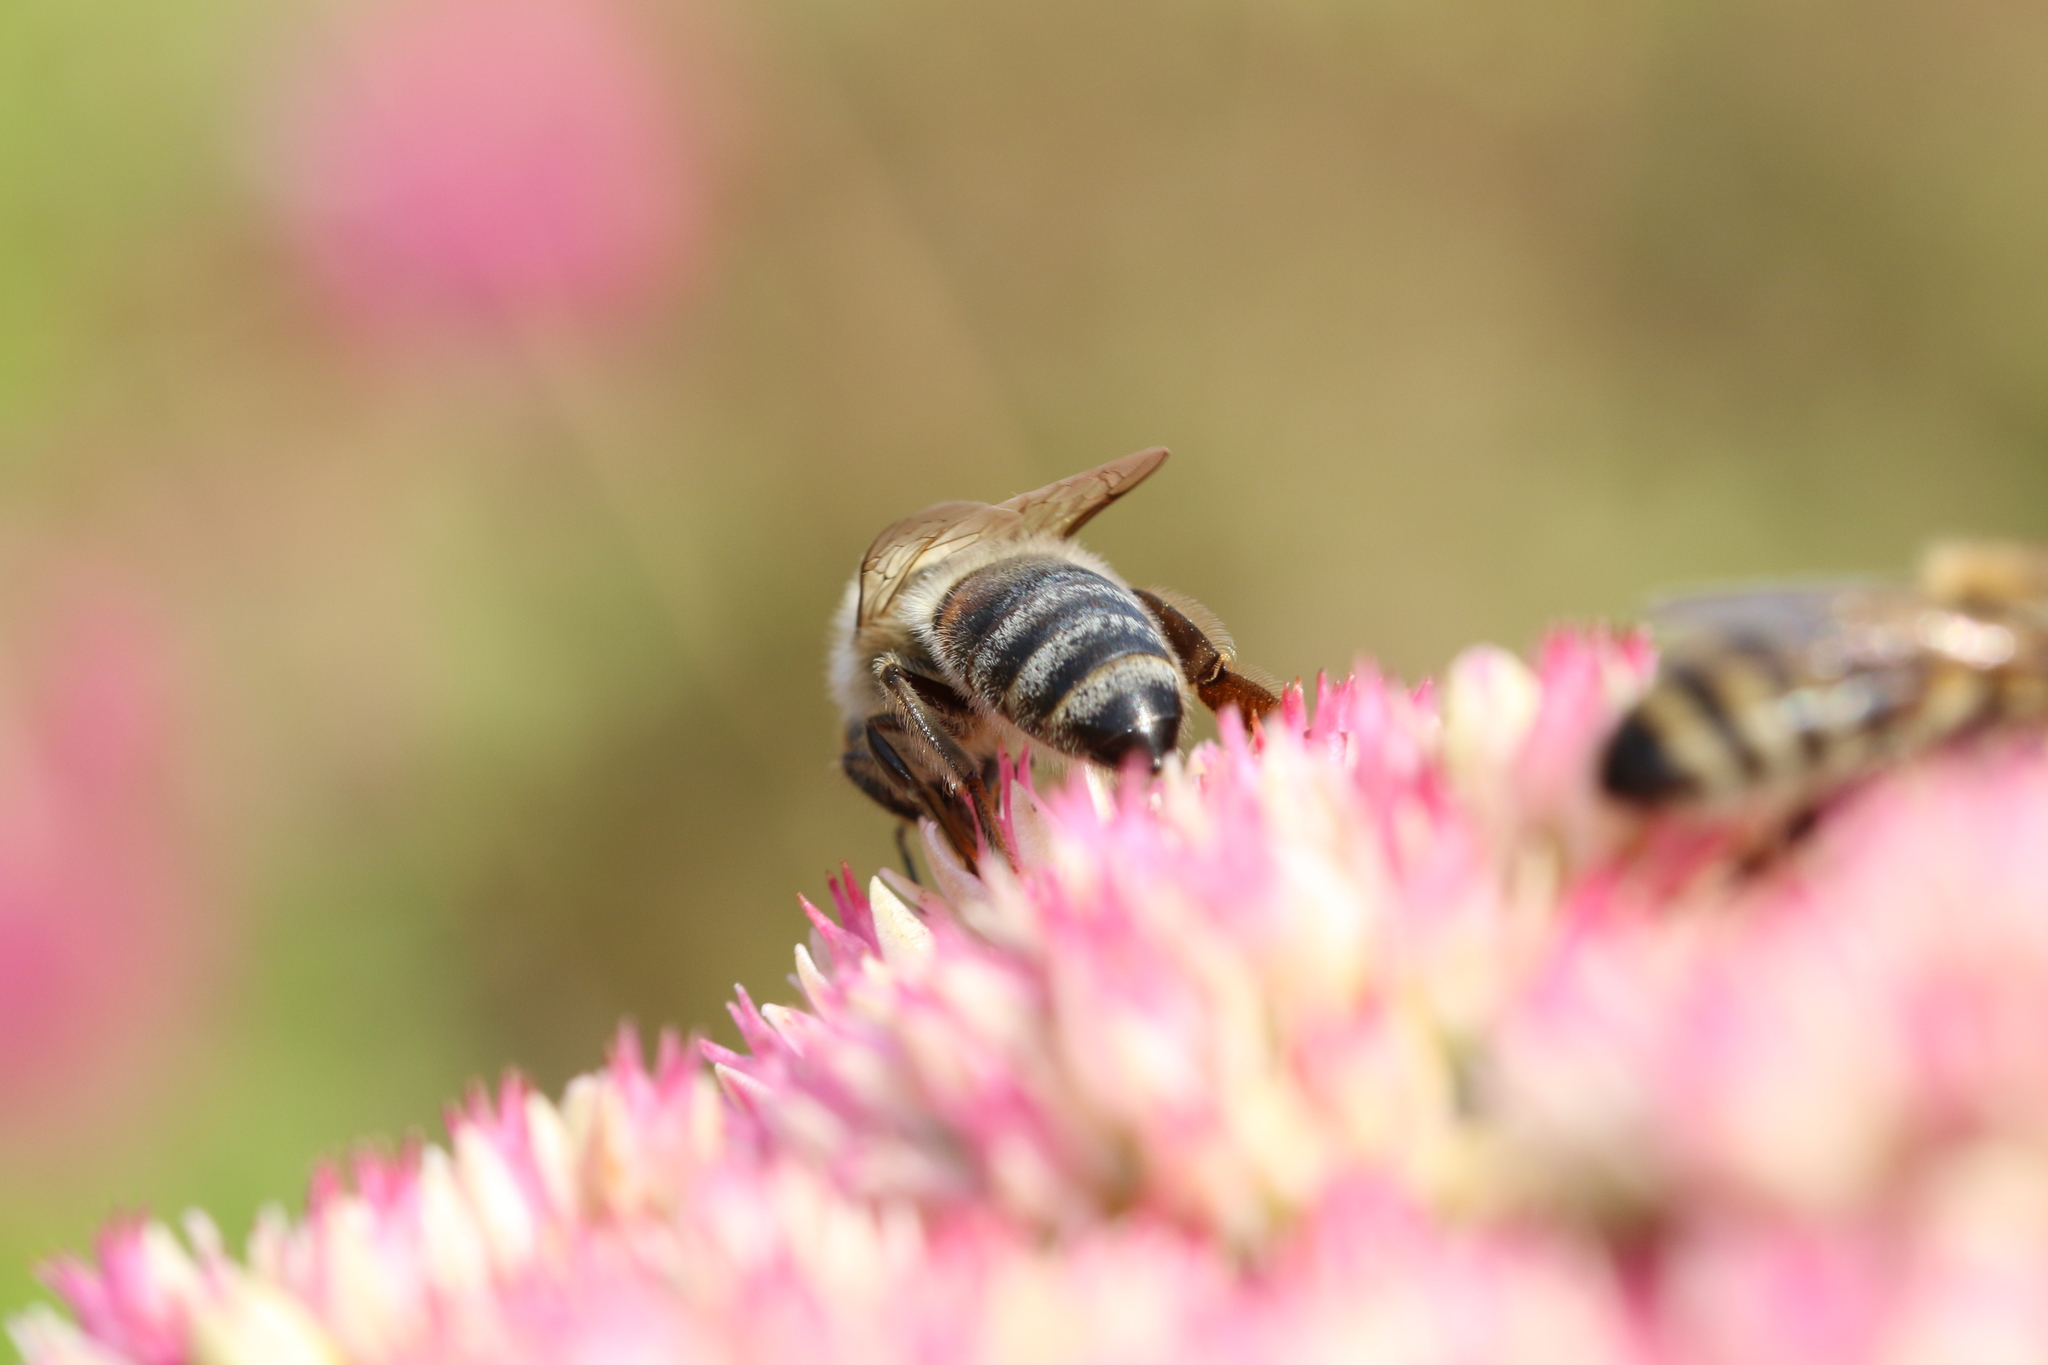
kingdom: Animalia
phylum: Arthropoda
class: Insecta
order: Hymenoptera
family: Apidae
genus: Apis
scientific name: Apis mellifera
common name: Honey bee
